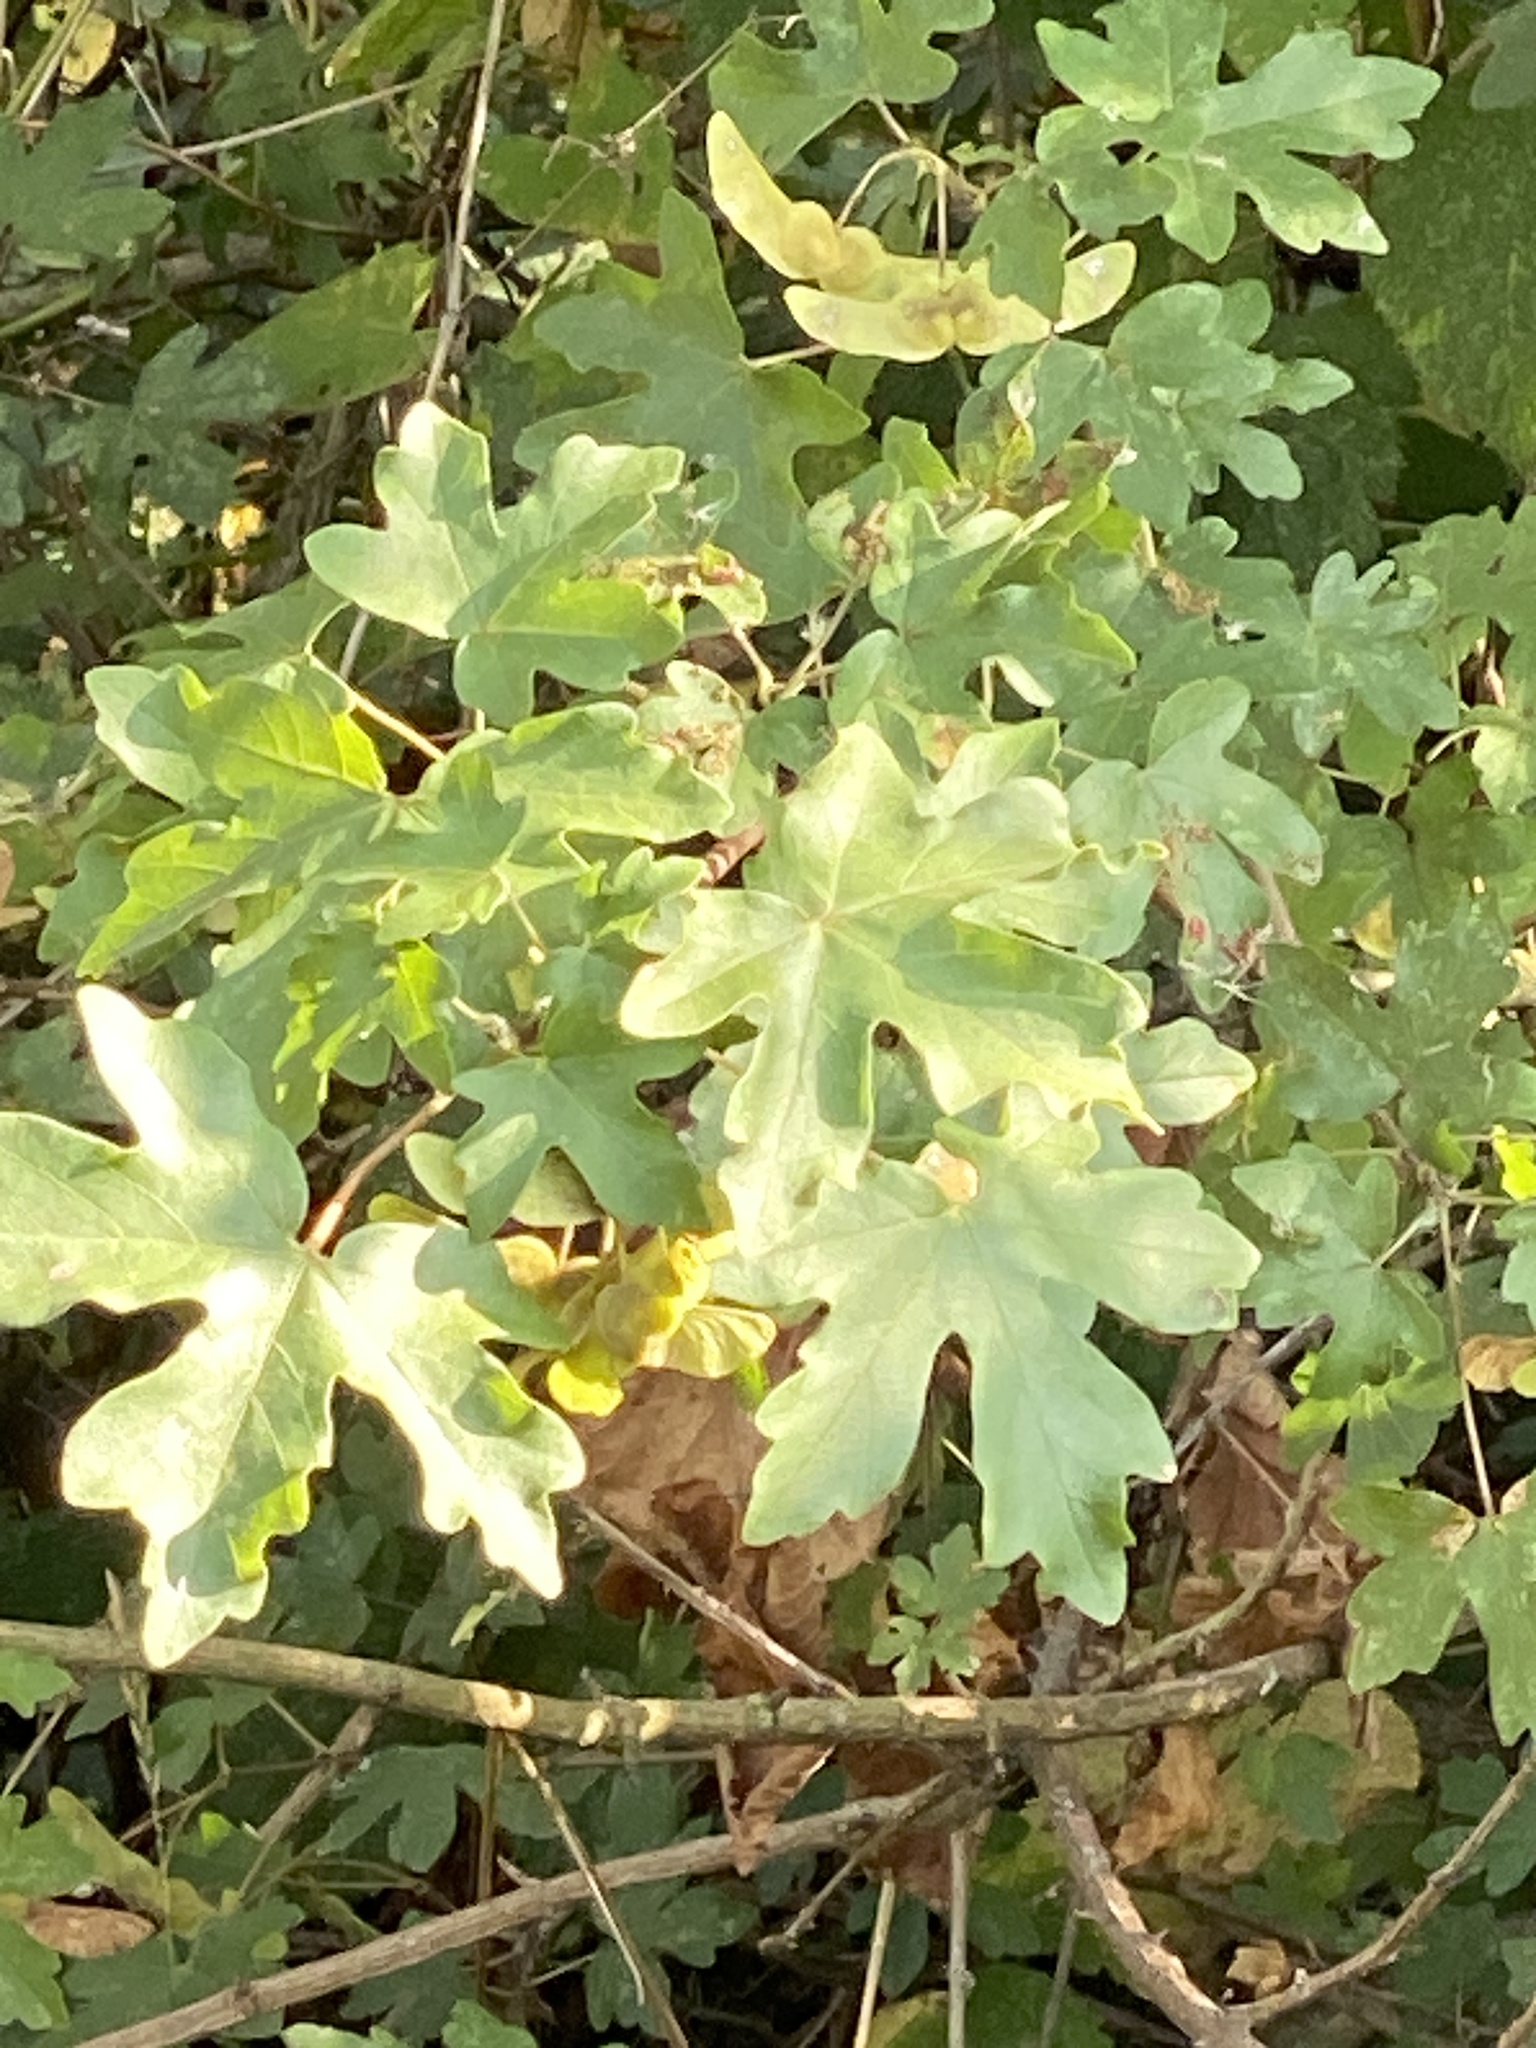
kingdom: Plantae
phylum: Tracheophyta
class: Magnoliopsida
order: Sapindales
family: Sapindaceae
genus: Acer
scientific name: Acer campestre
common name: Field maple
